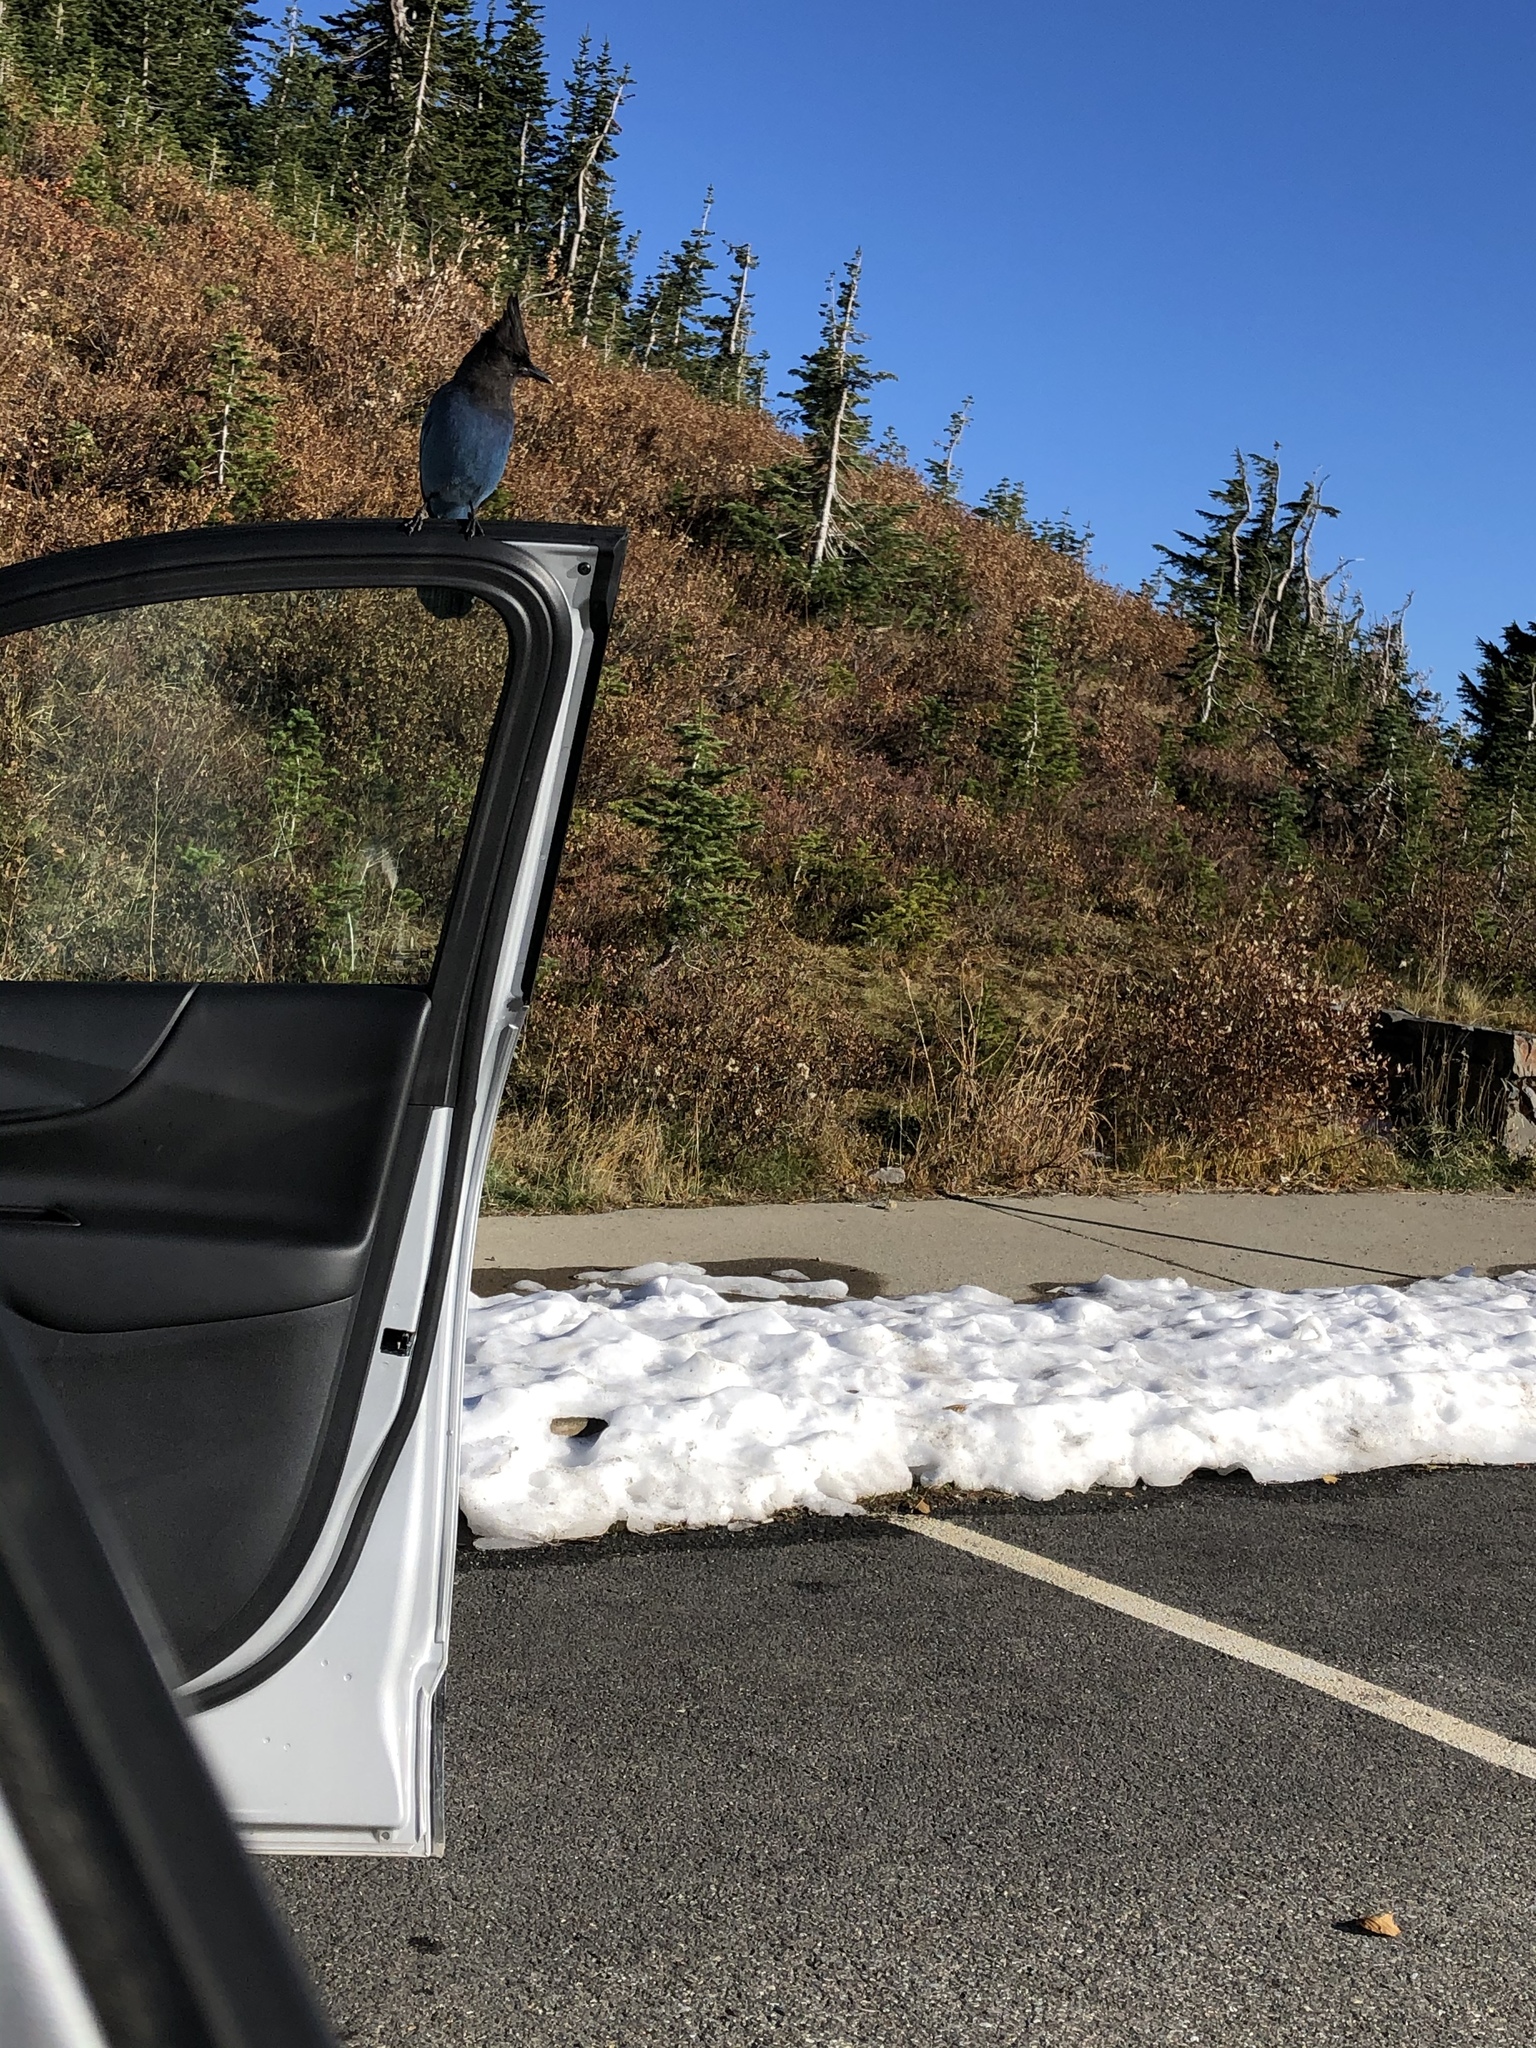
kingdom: Animalia
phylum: Chordata
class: Aves
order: Passeriformes
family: Corvidae
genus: Cyanocitta
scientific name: Cyanocitta stelleri
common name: Steller's jay
